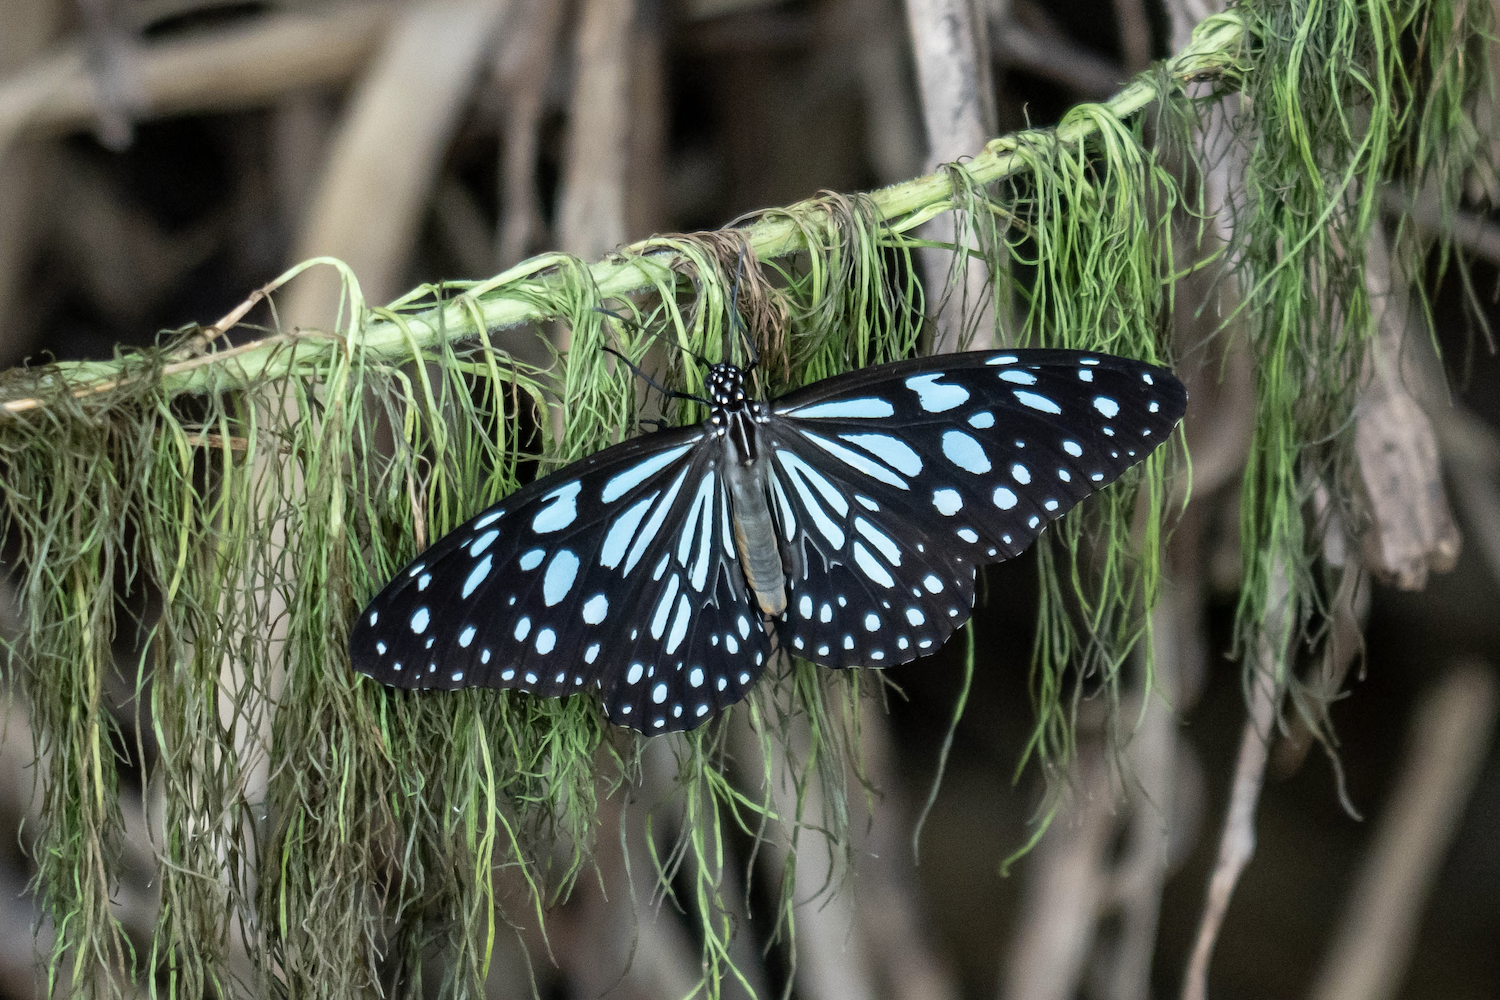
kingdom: Animalia
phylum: Arthropoda
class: Insecta
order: Lepidoptera
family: Nymphalidae
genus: Tirumala
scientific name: Tirumala limniace
